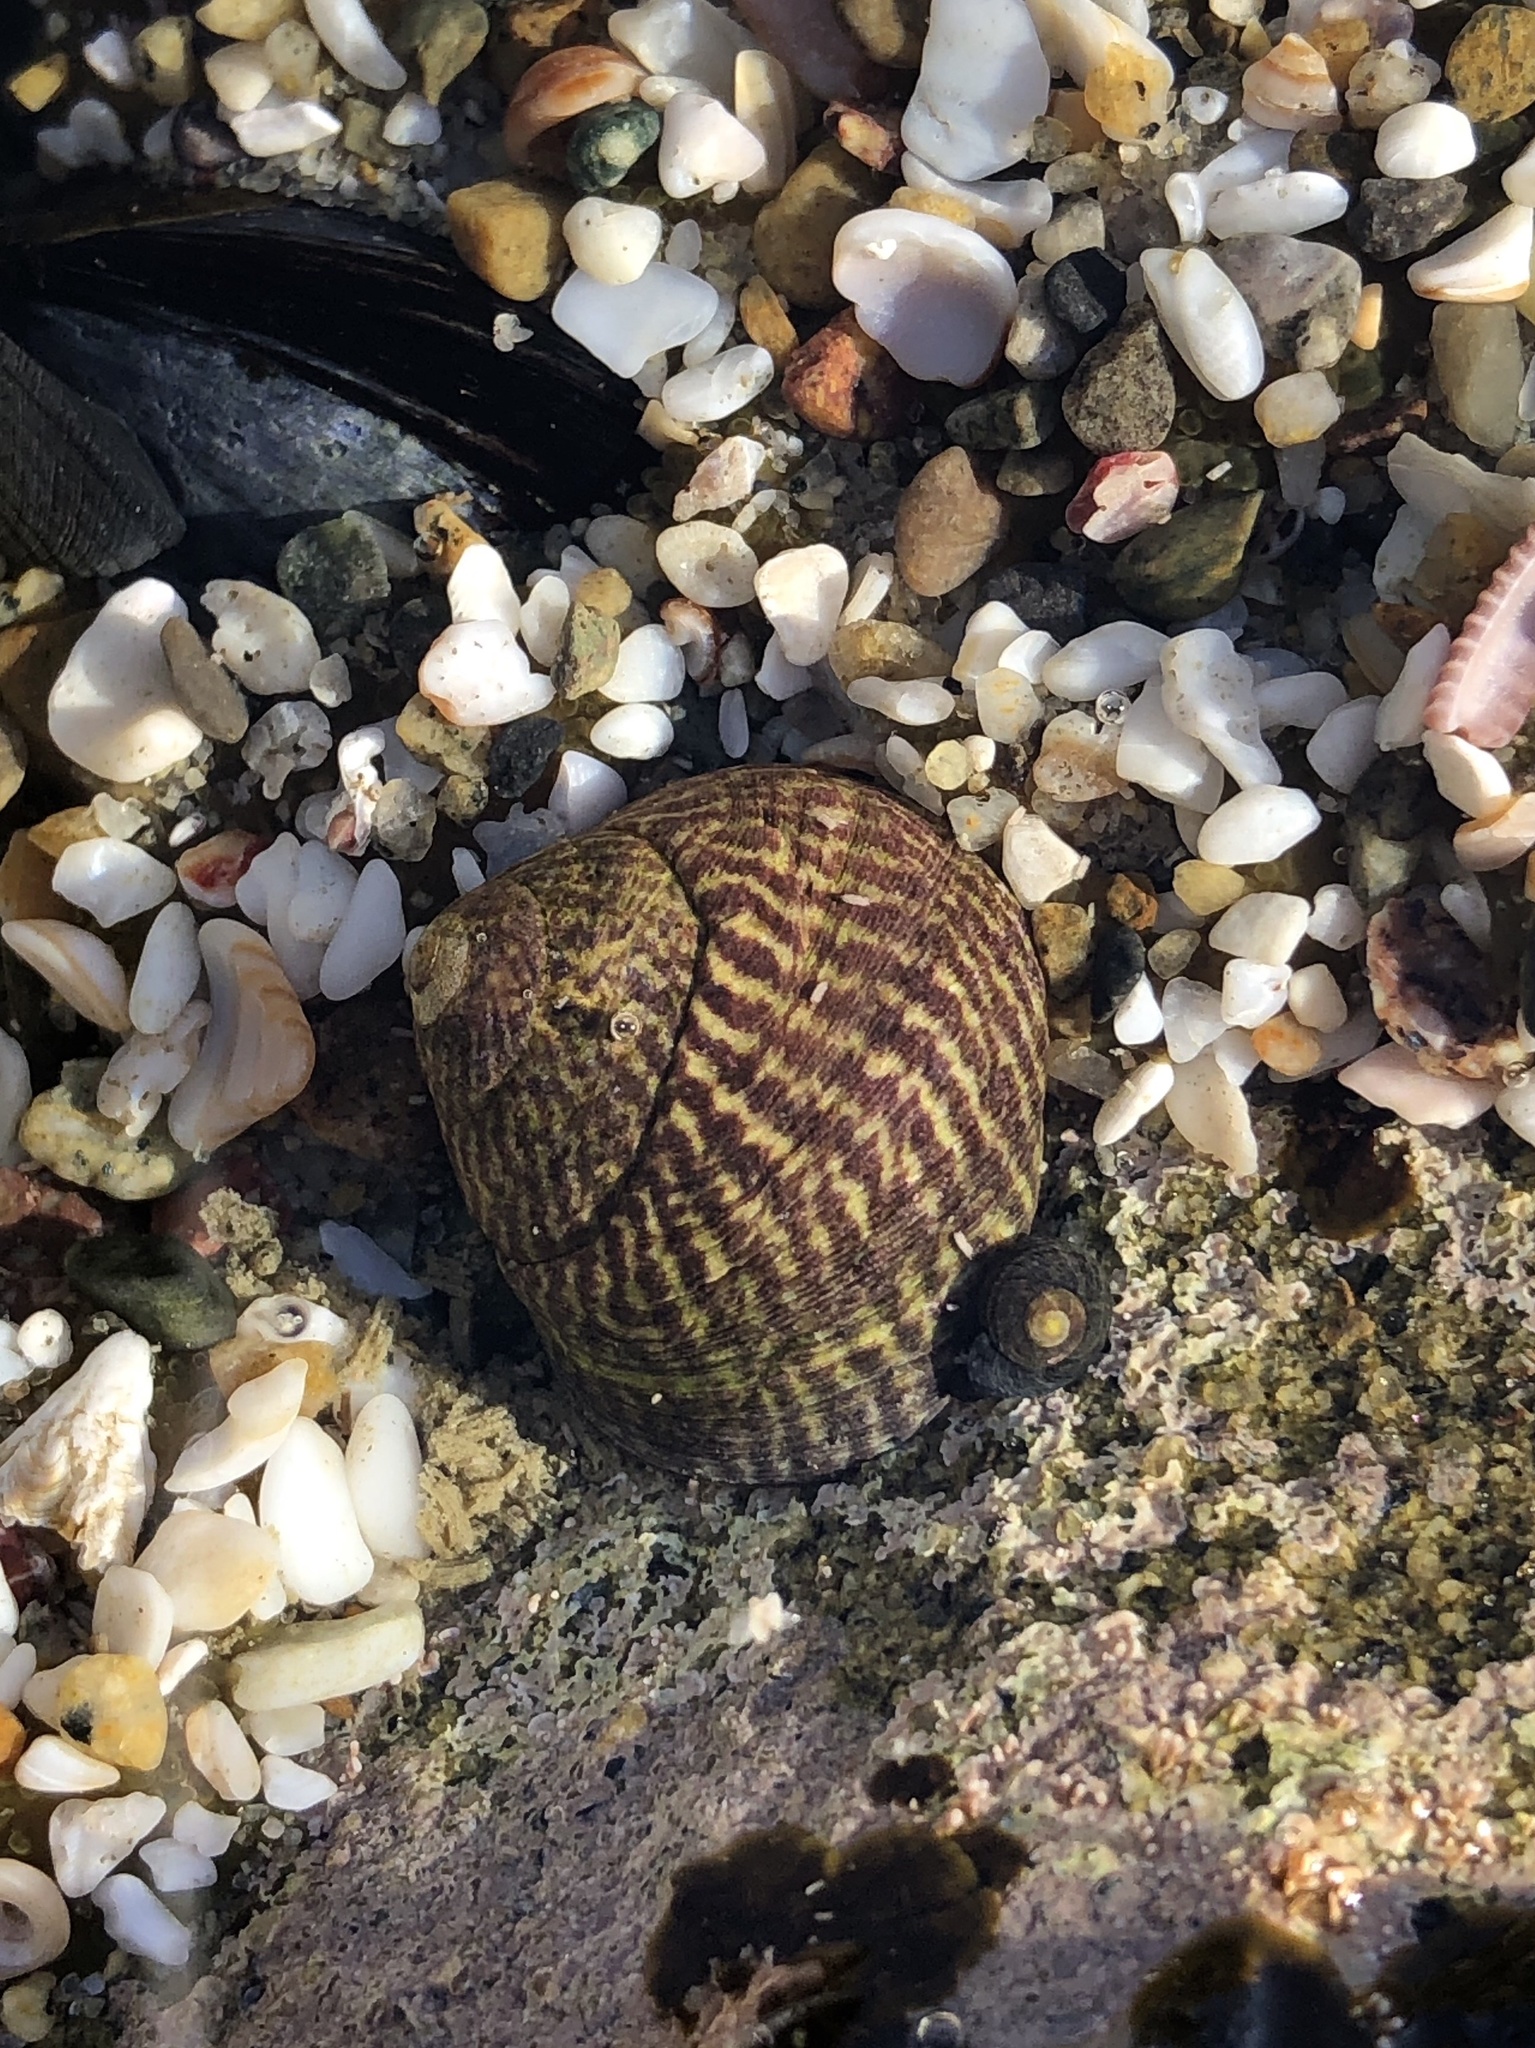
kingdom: Animalia
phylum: Mollusca
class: Gastropoda
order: Trochida
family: Tegulidae
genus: Tegula
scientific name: Tegula gallina
